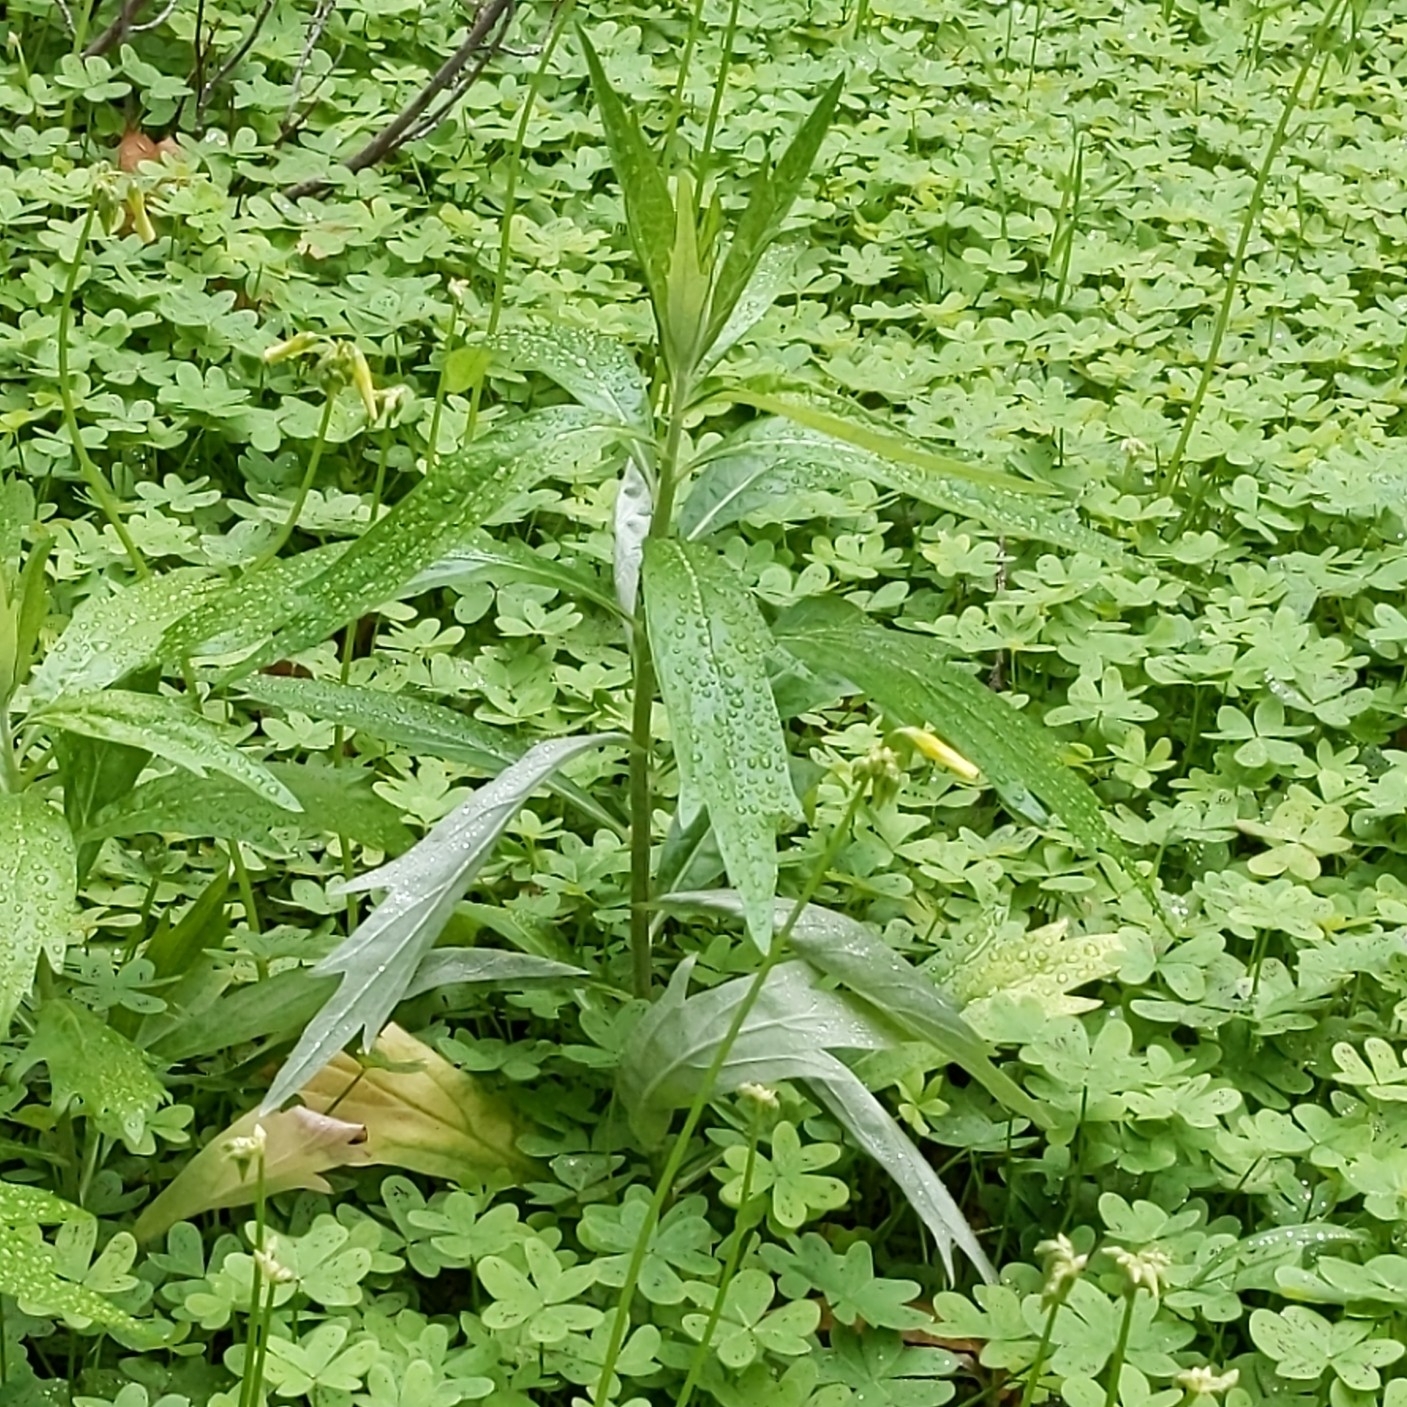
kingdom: Plantae
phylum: Tracheophyta
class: Magnoliopsida
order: Asterales
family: Asteraceae
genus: Artemisia
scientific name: Artemisia douglasiana
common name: Northwest mugwort
